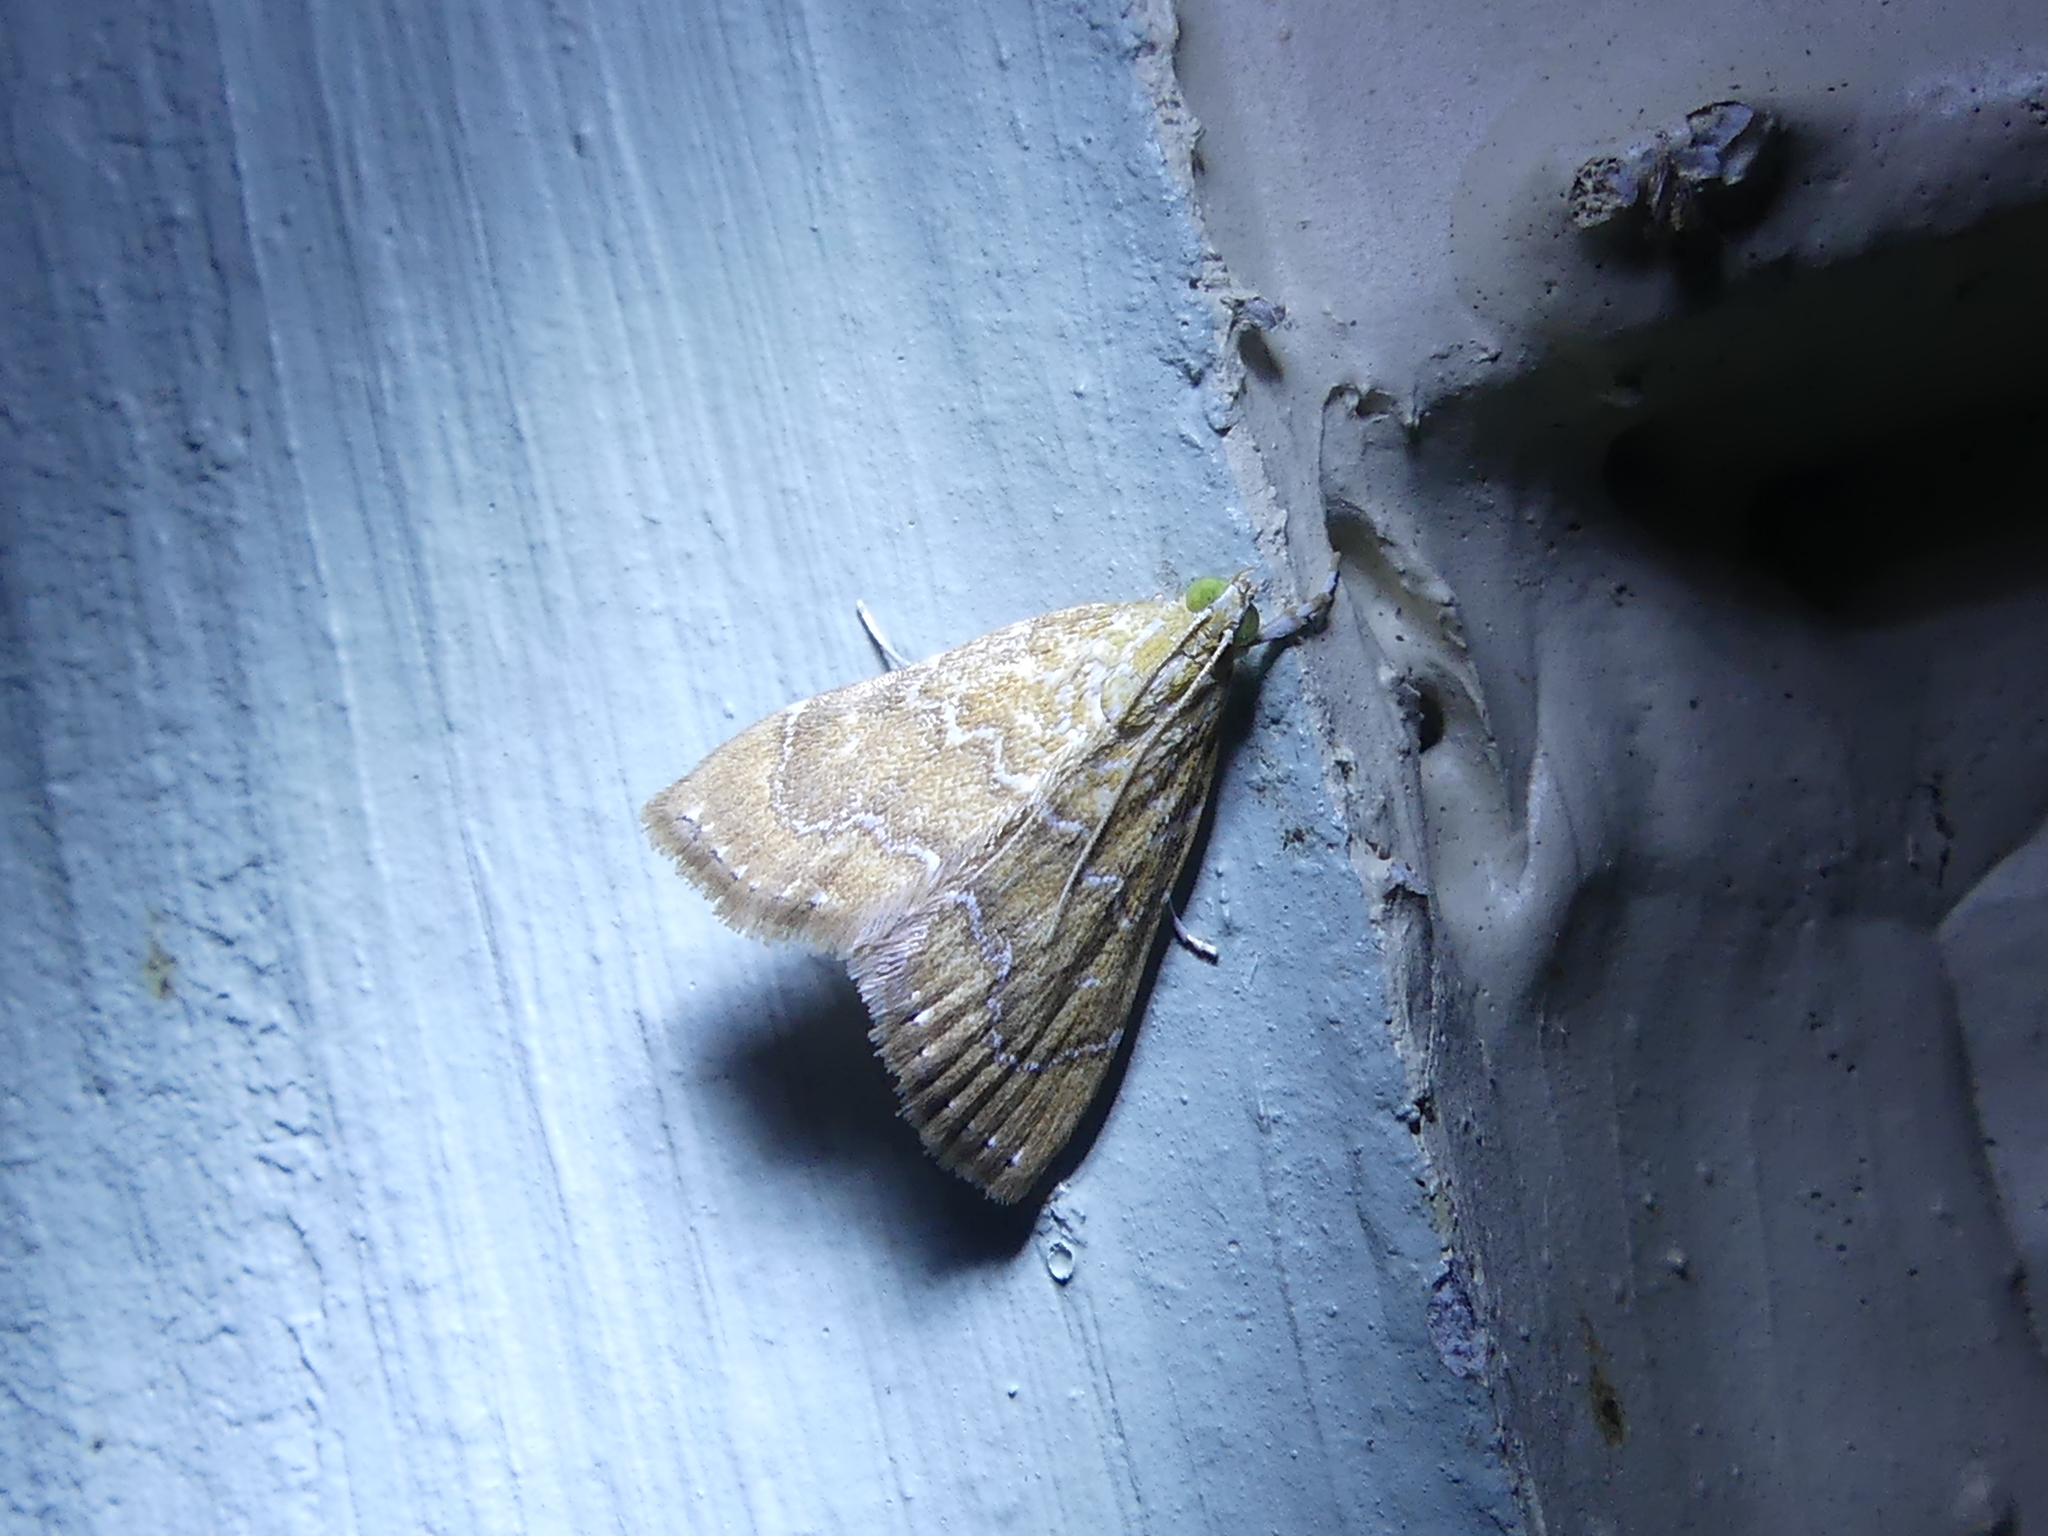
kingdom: Animalia
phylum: Arthropoda
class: Insecta
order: Lepidoptera
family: Crambidae
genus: Glaphyria
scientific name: Glaphyria sesquistrialis
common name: White-roped glaphyria
